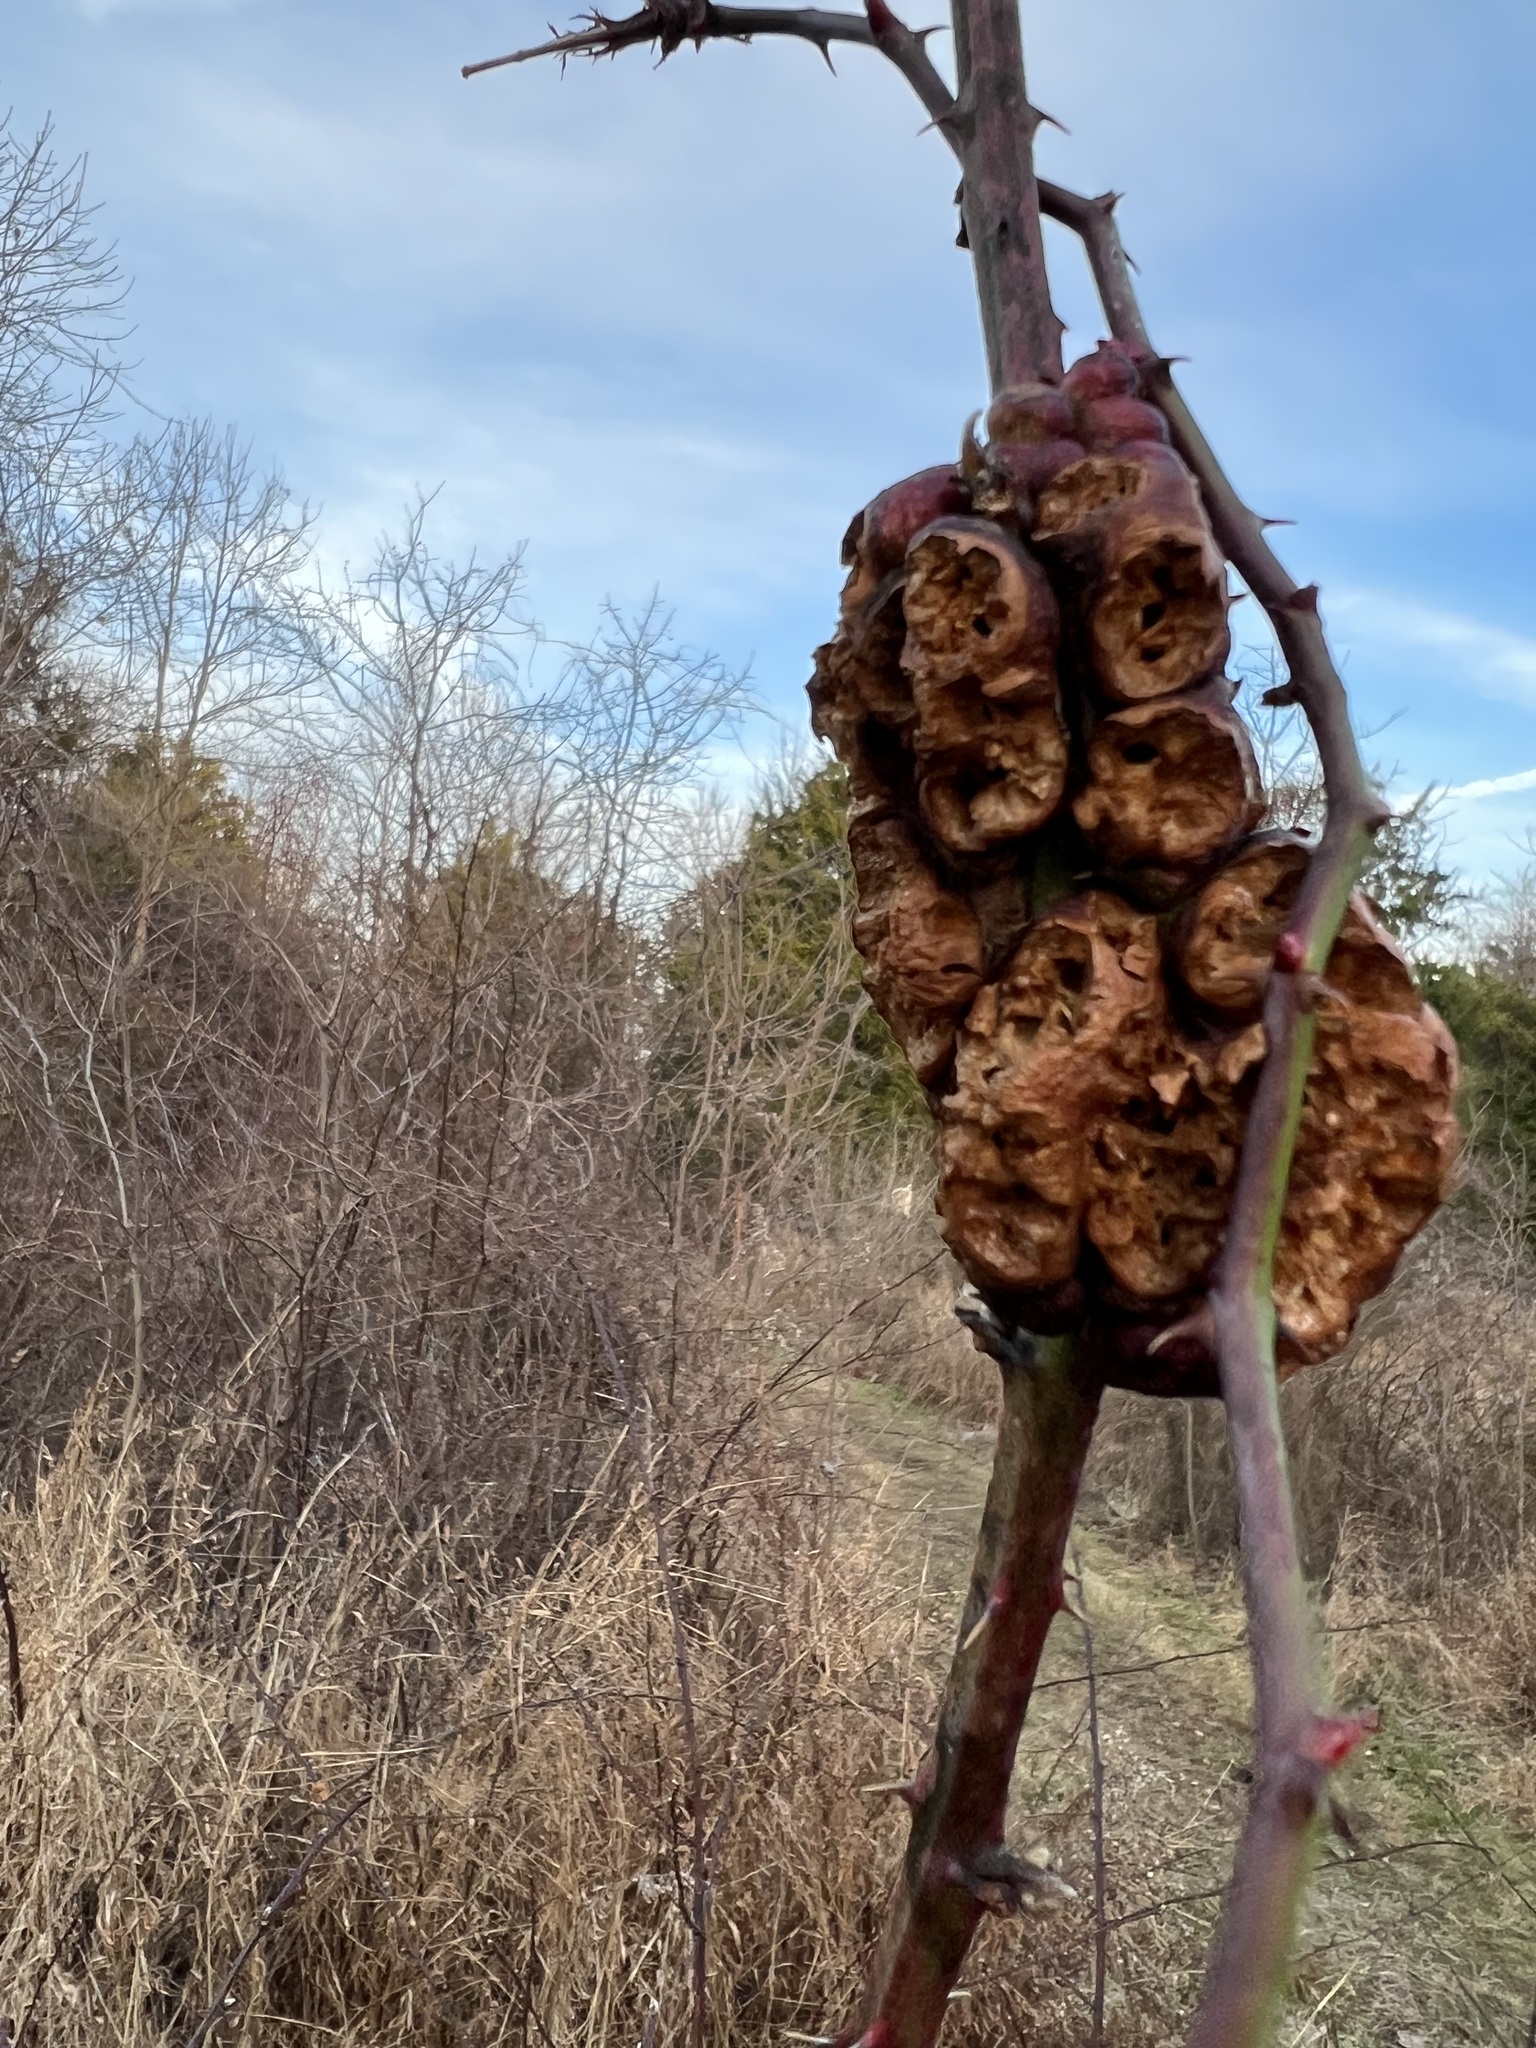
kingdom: Animalia
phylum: Arthropoda
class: Insecta
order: Hymenoptera
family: Cynipidae
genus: Diastrophus
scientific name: Diastrophus
